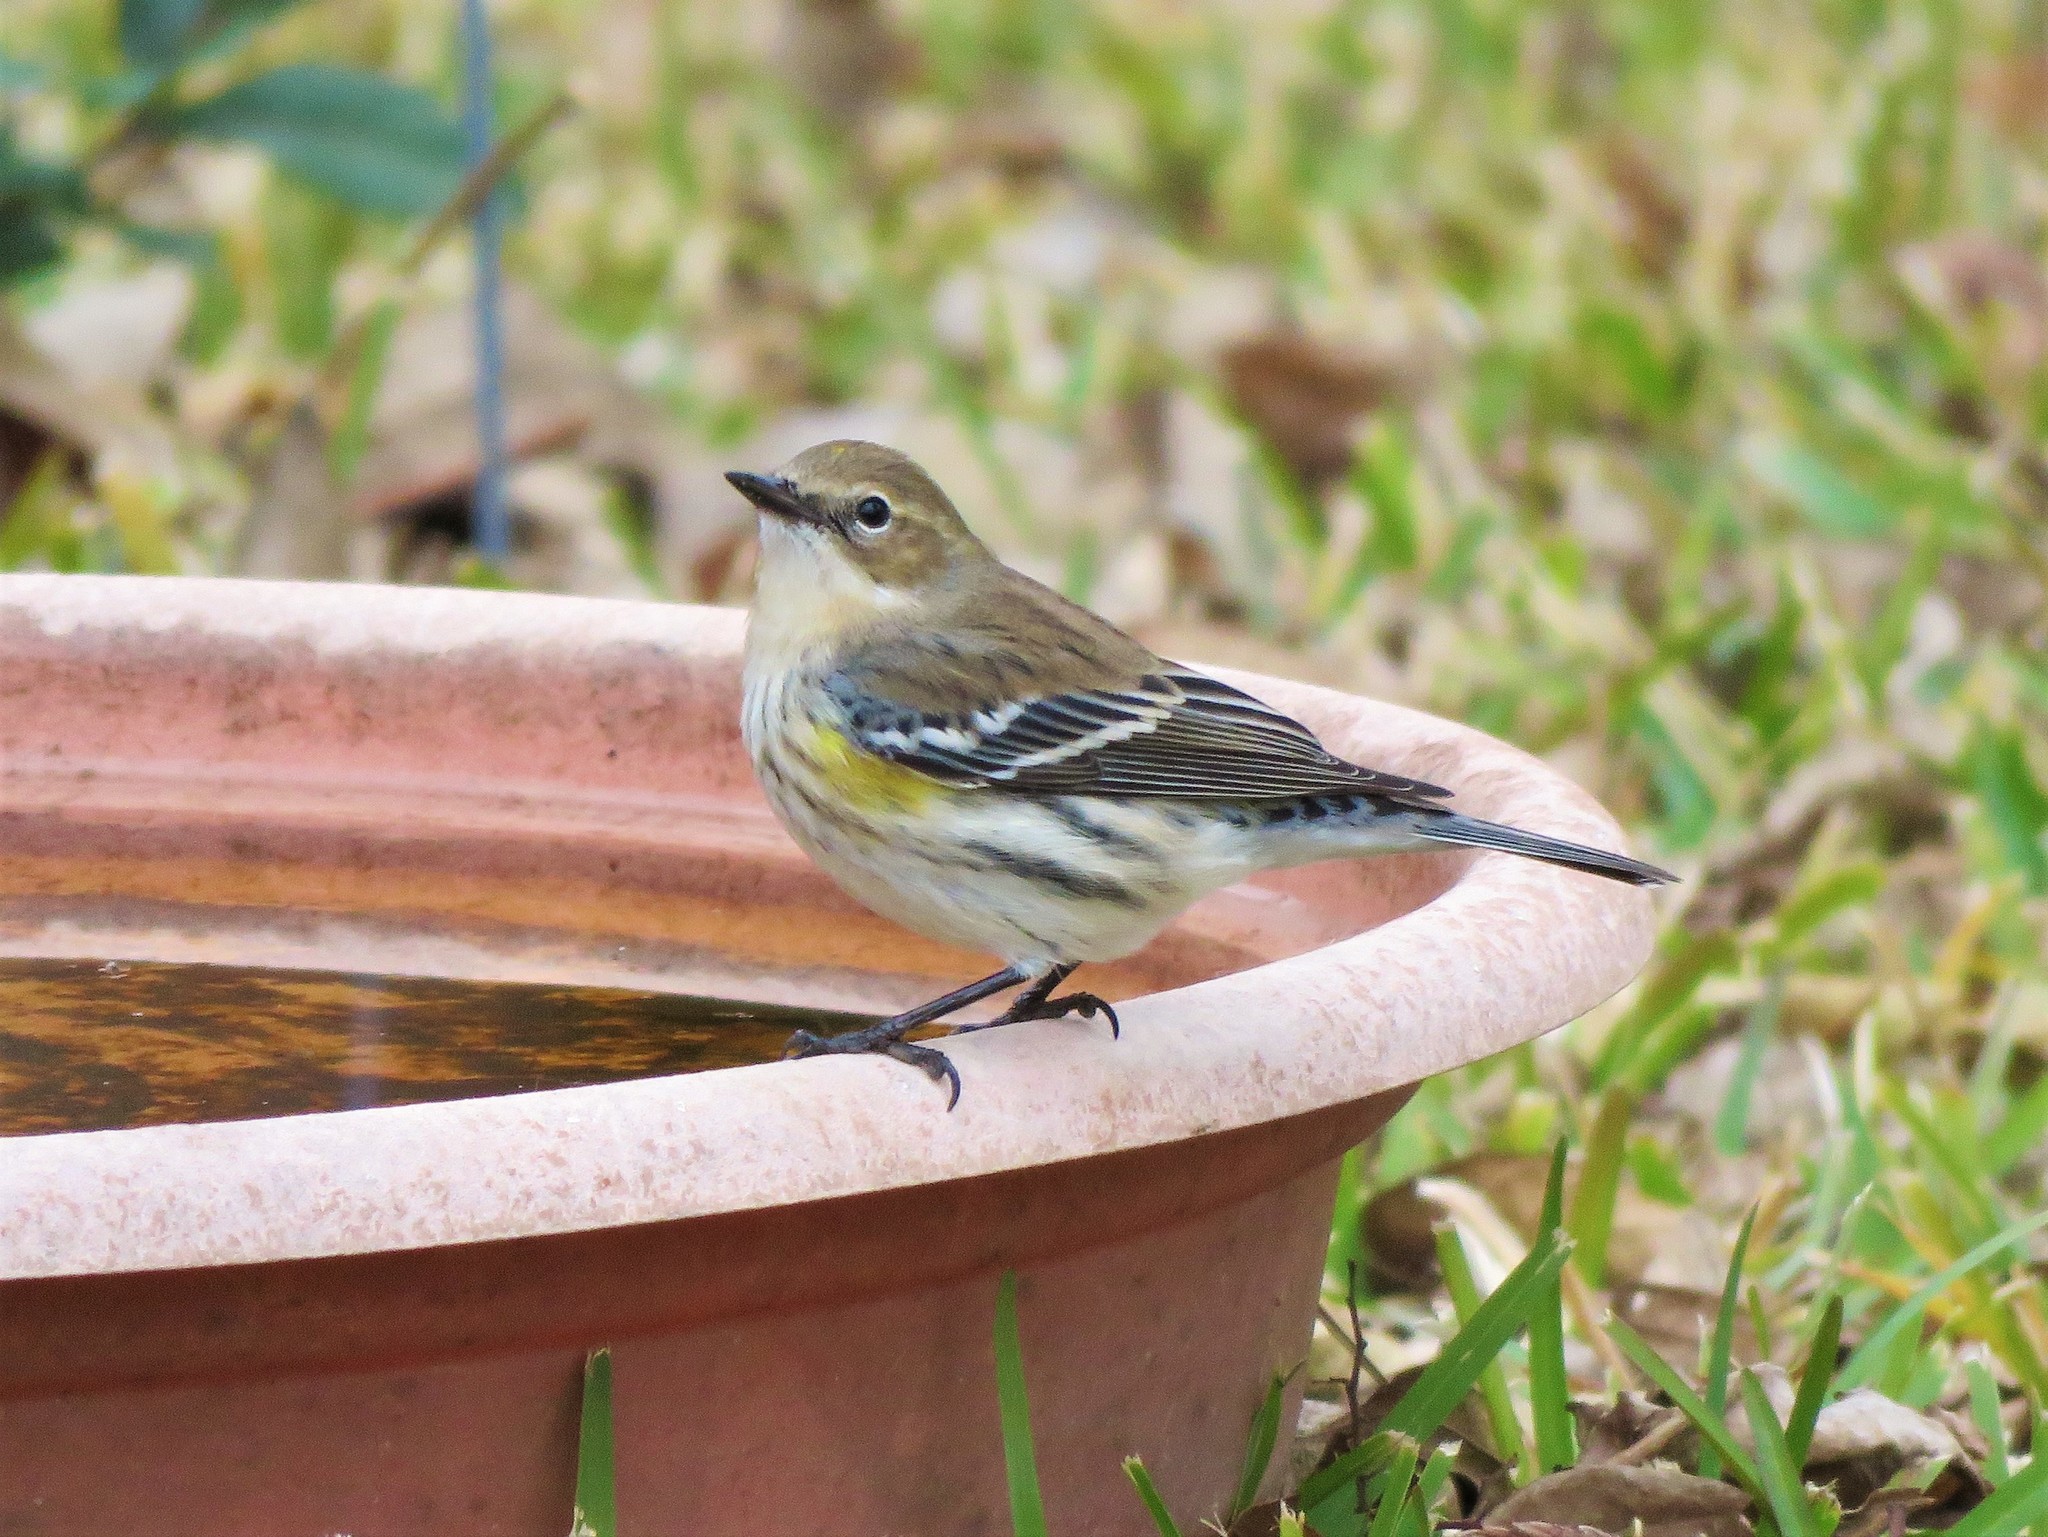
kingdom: Animalia
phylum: Chordata
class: Aves
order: Passeriformes
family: Parulidae
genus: Setophaga
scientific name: Setophaga coronata
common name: Myrtle warbler
